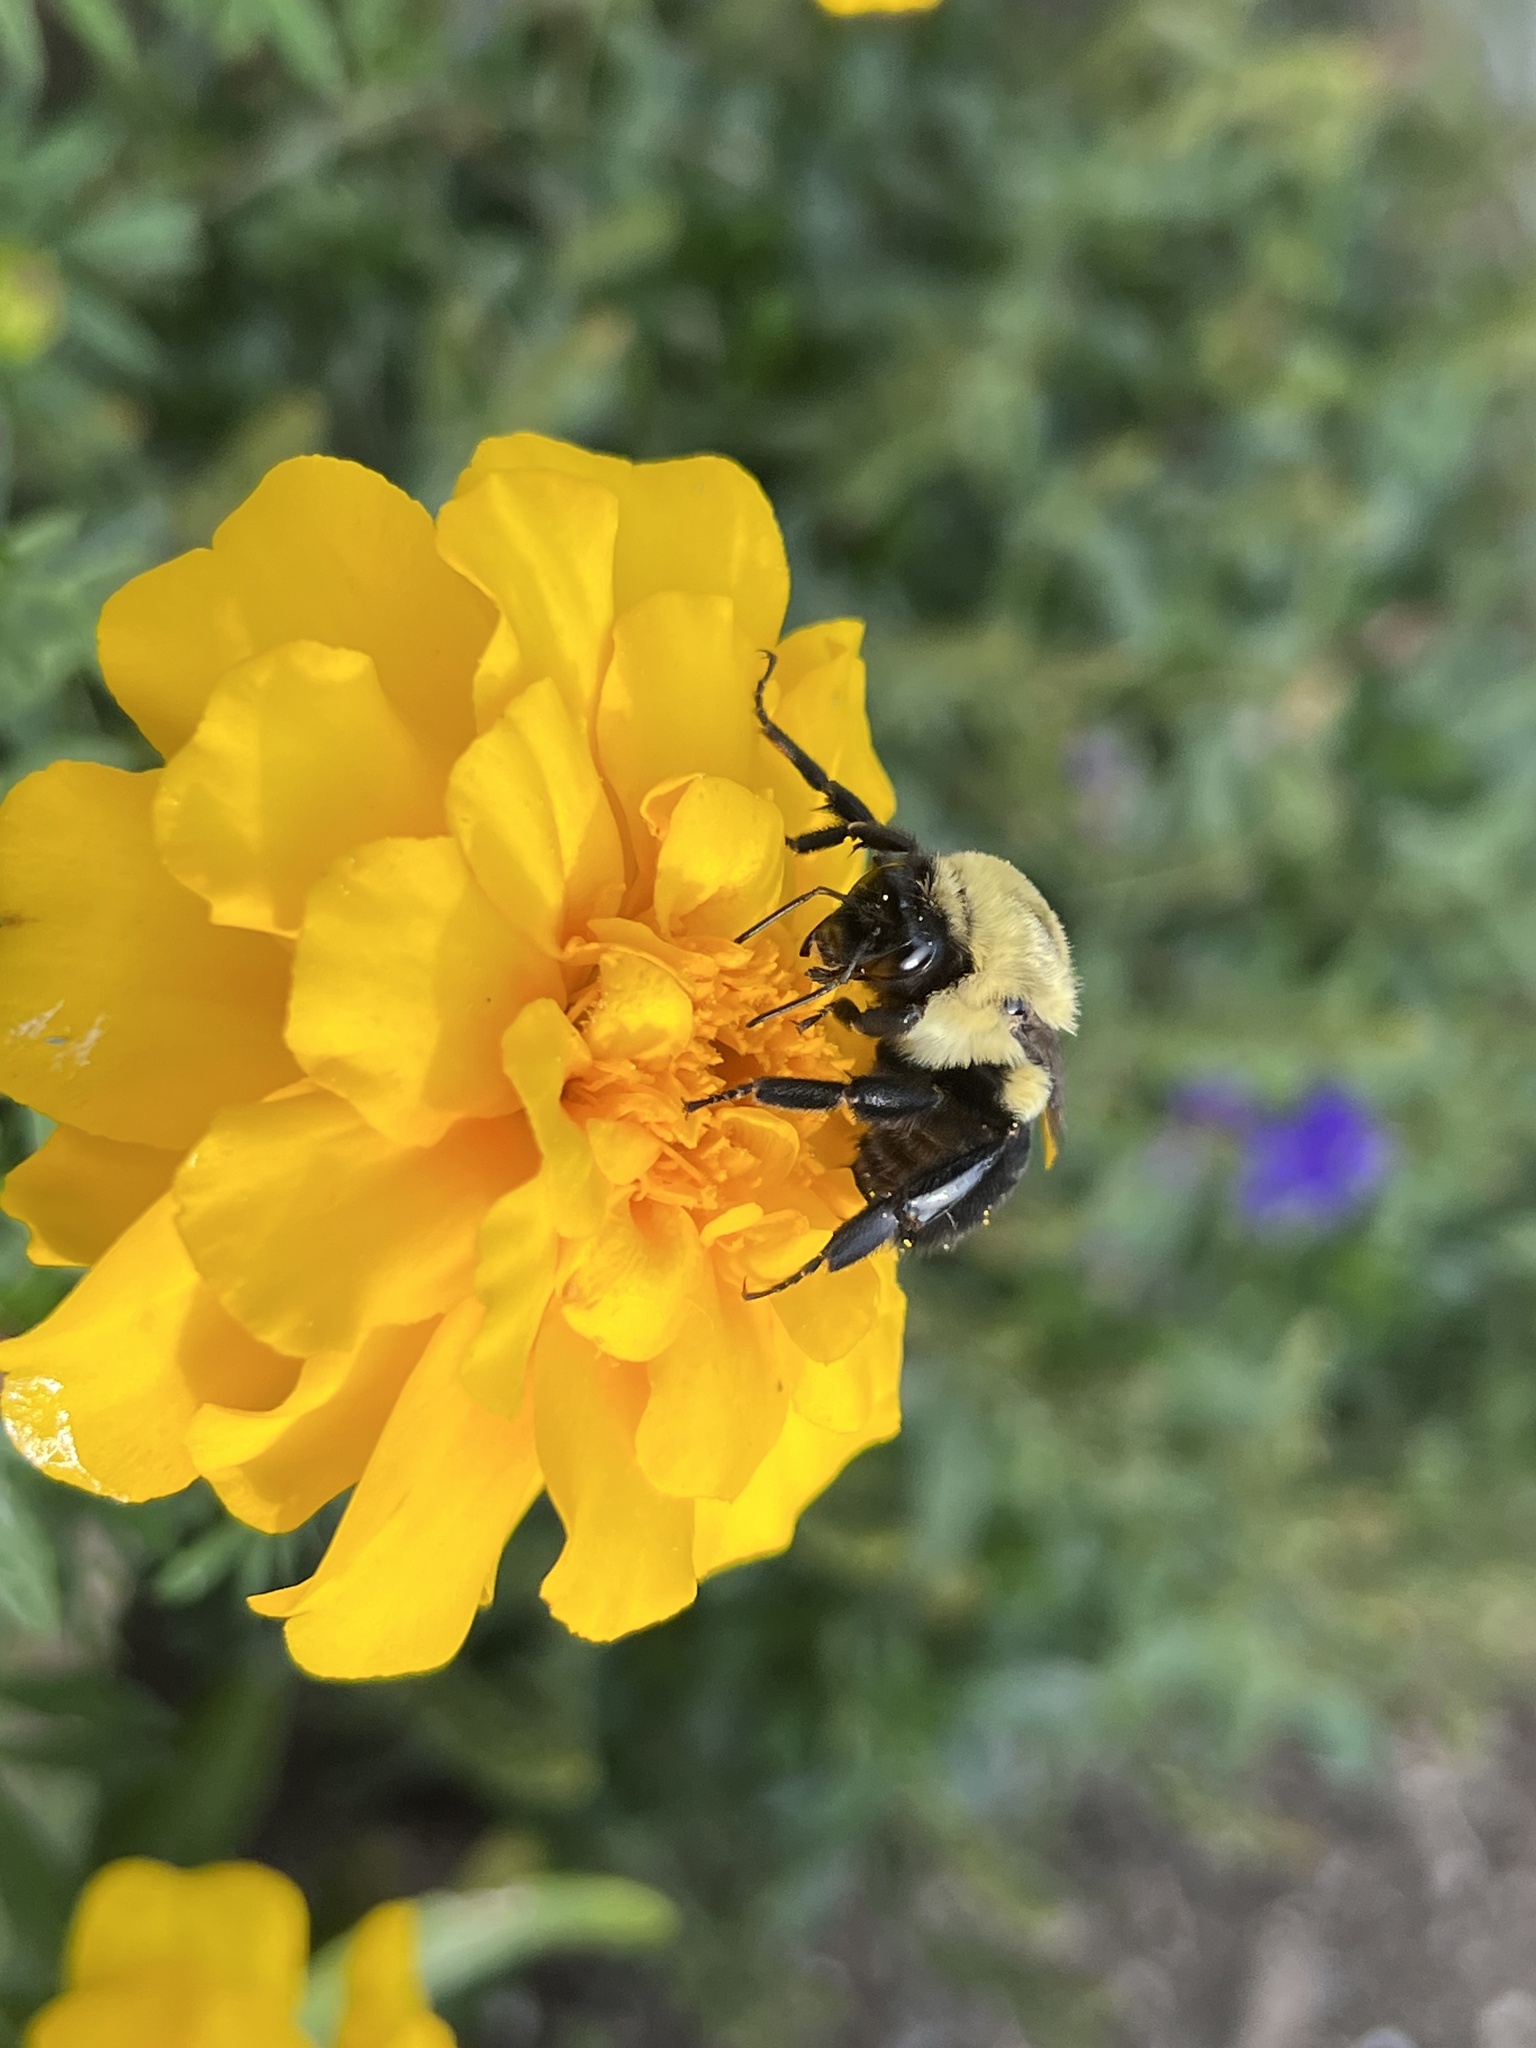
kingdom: Animalia
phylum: Arthropoda
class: Insecta
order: Hymenoptera
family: Apidae
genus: Bombus
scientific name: Bombus impatiens
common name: Common eastern bumble bee
